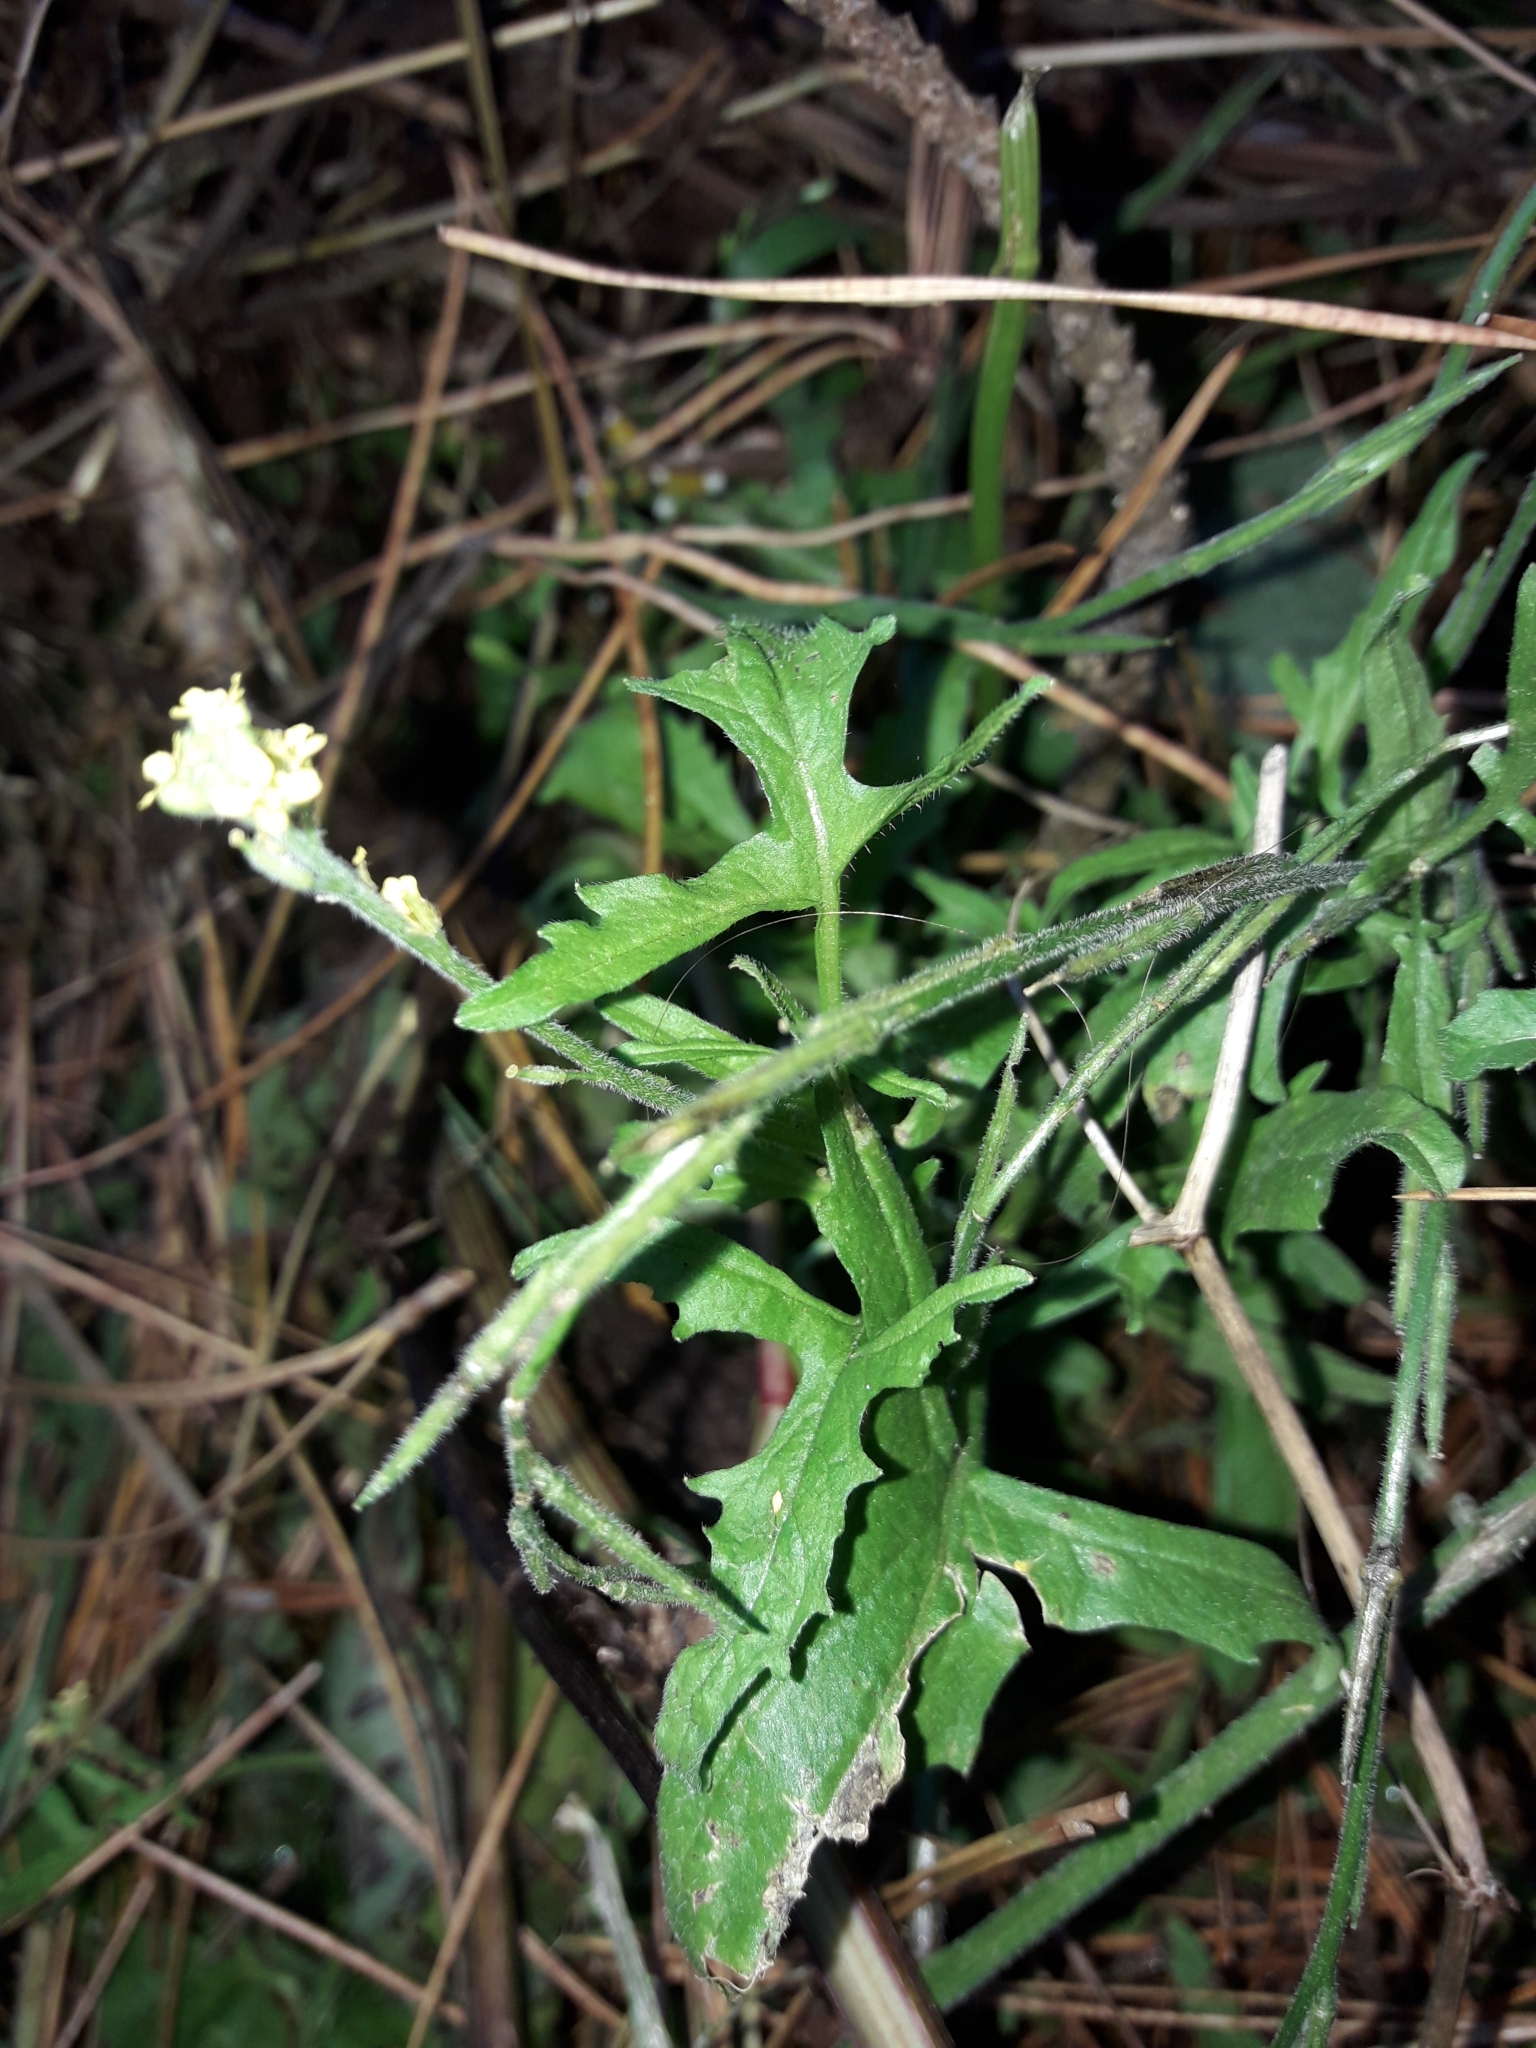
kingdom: Plantae
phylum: Tracheophyta
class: Magnoliopsida
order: Brassicales
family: Brassicaceae
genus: Sisymbrium
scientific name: Sisymbrium officinale
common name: Hedge mustard
